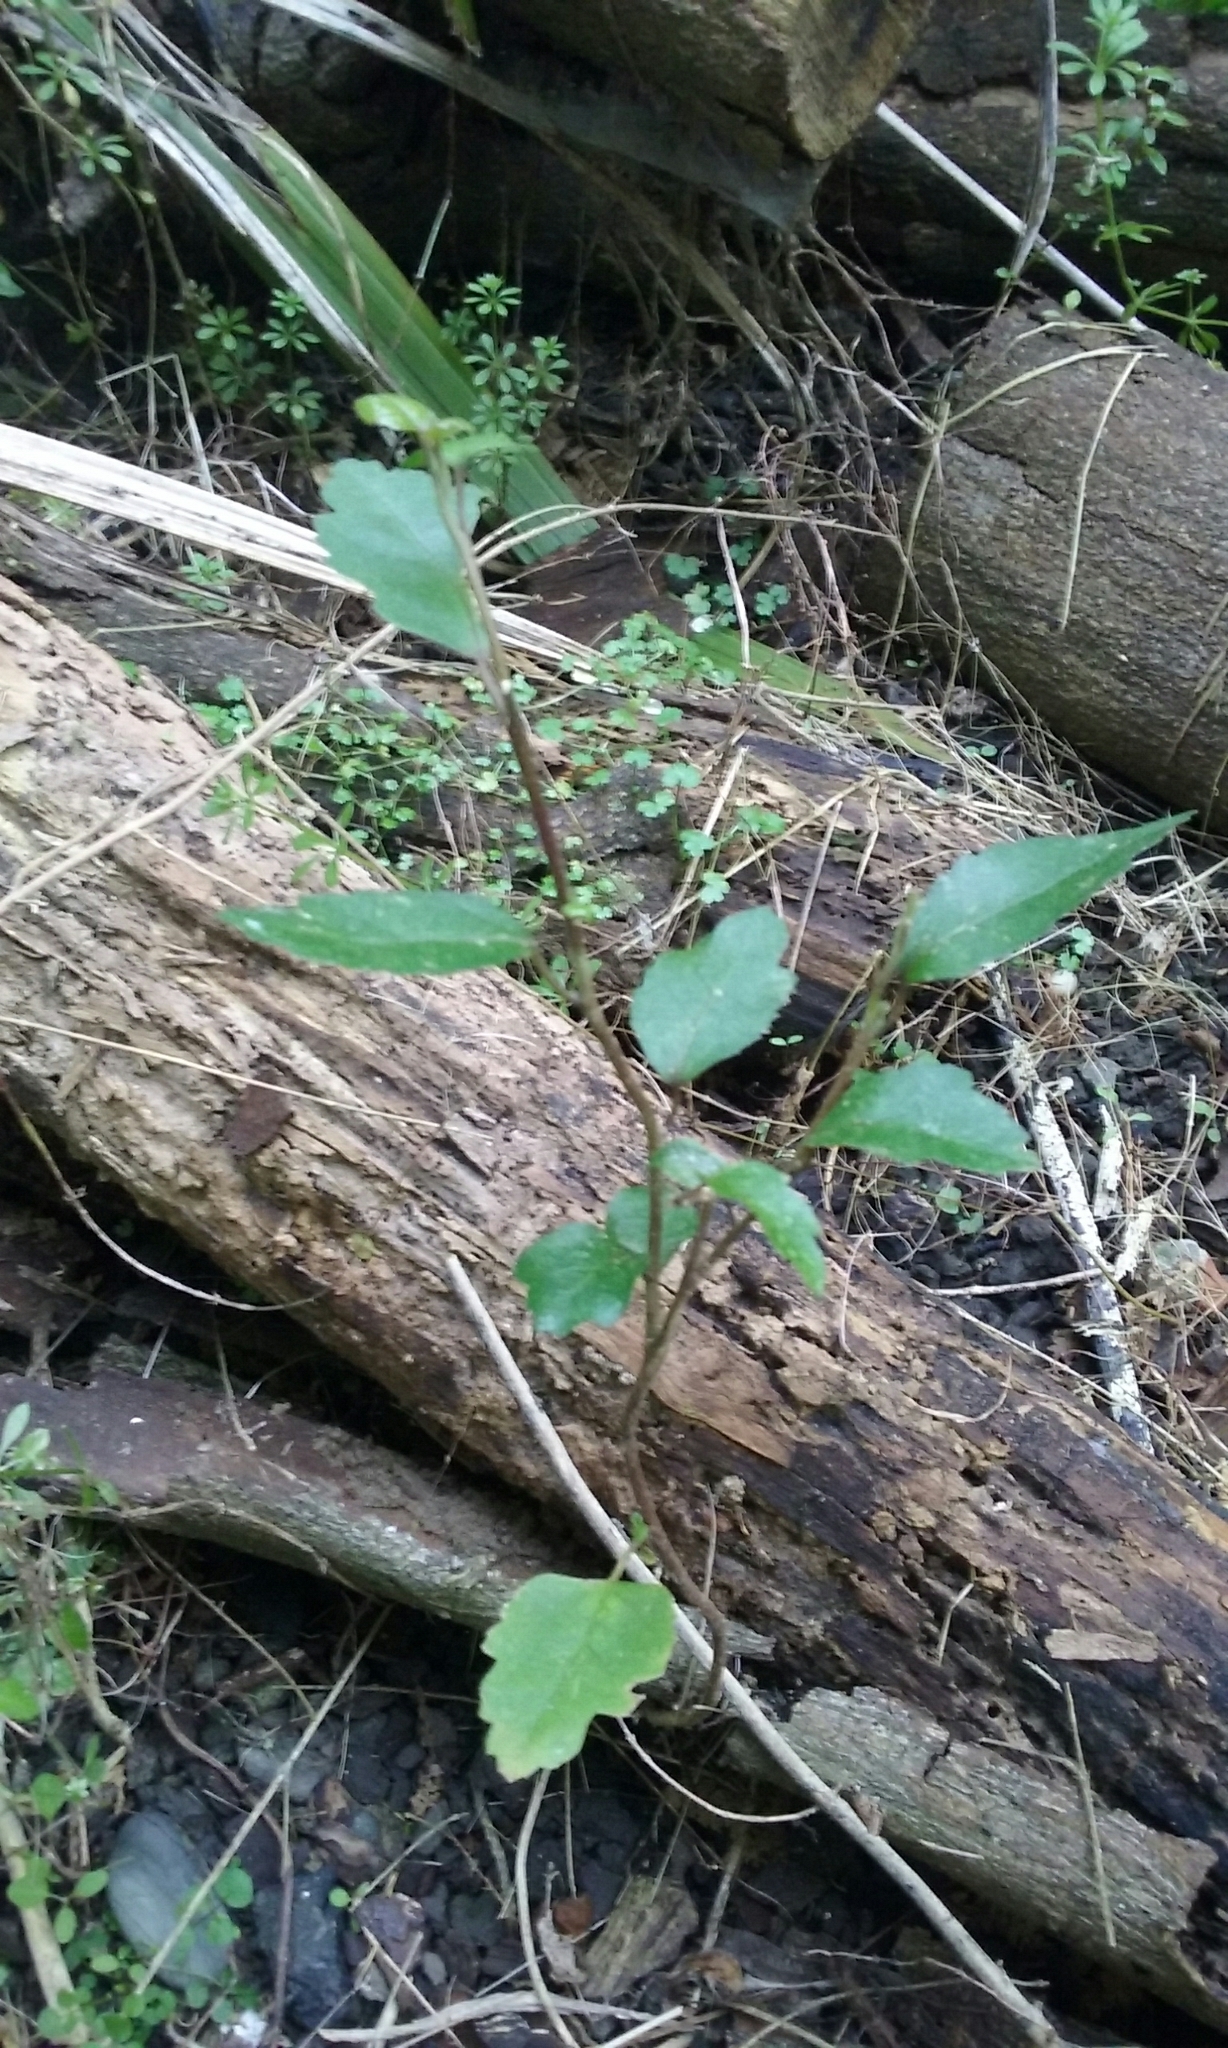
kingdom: Plantae
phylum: Tracheophyta
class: Magnoliopsida
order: Malvales
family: Malvaceae
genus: Hoheria
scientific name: Hoheria populnea
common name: Lacebark
